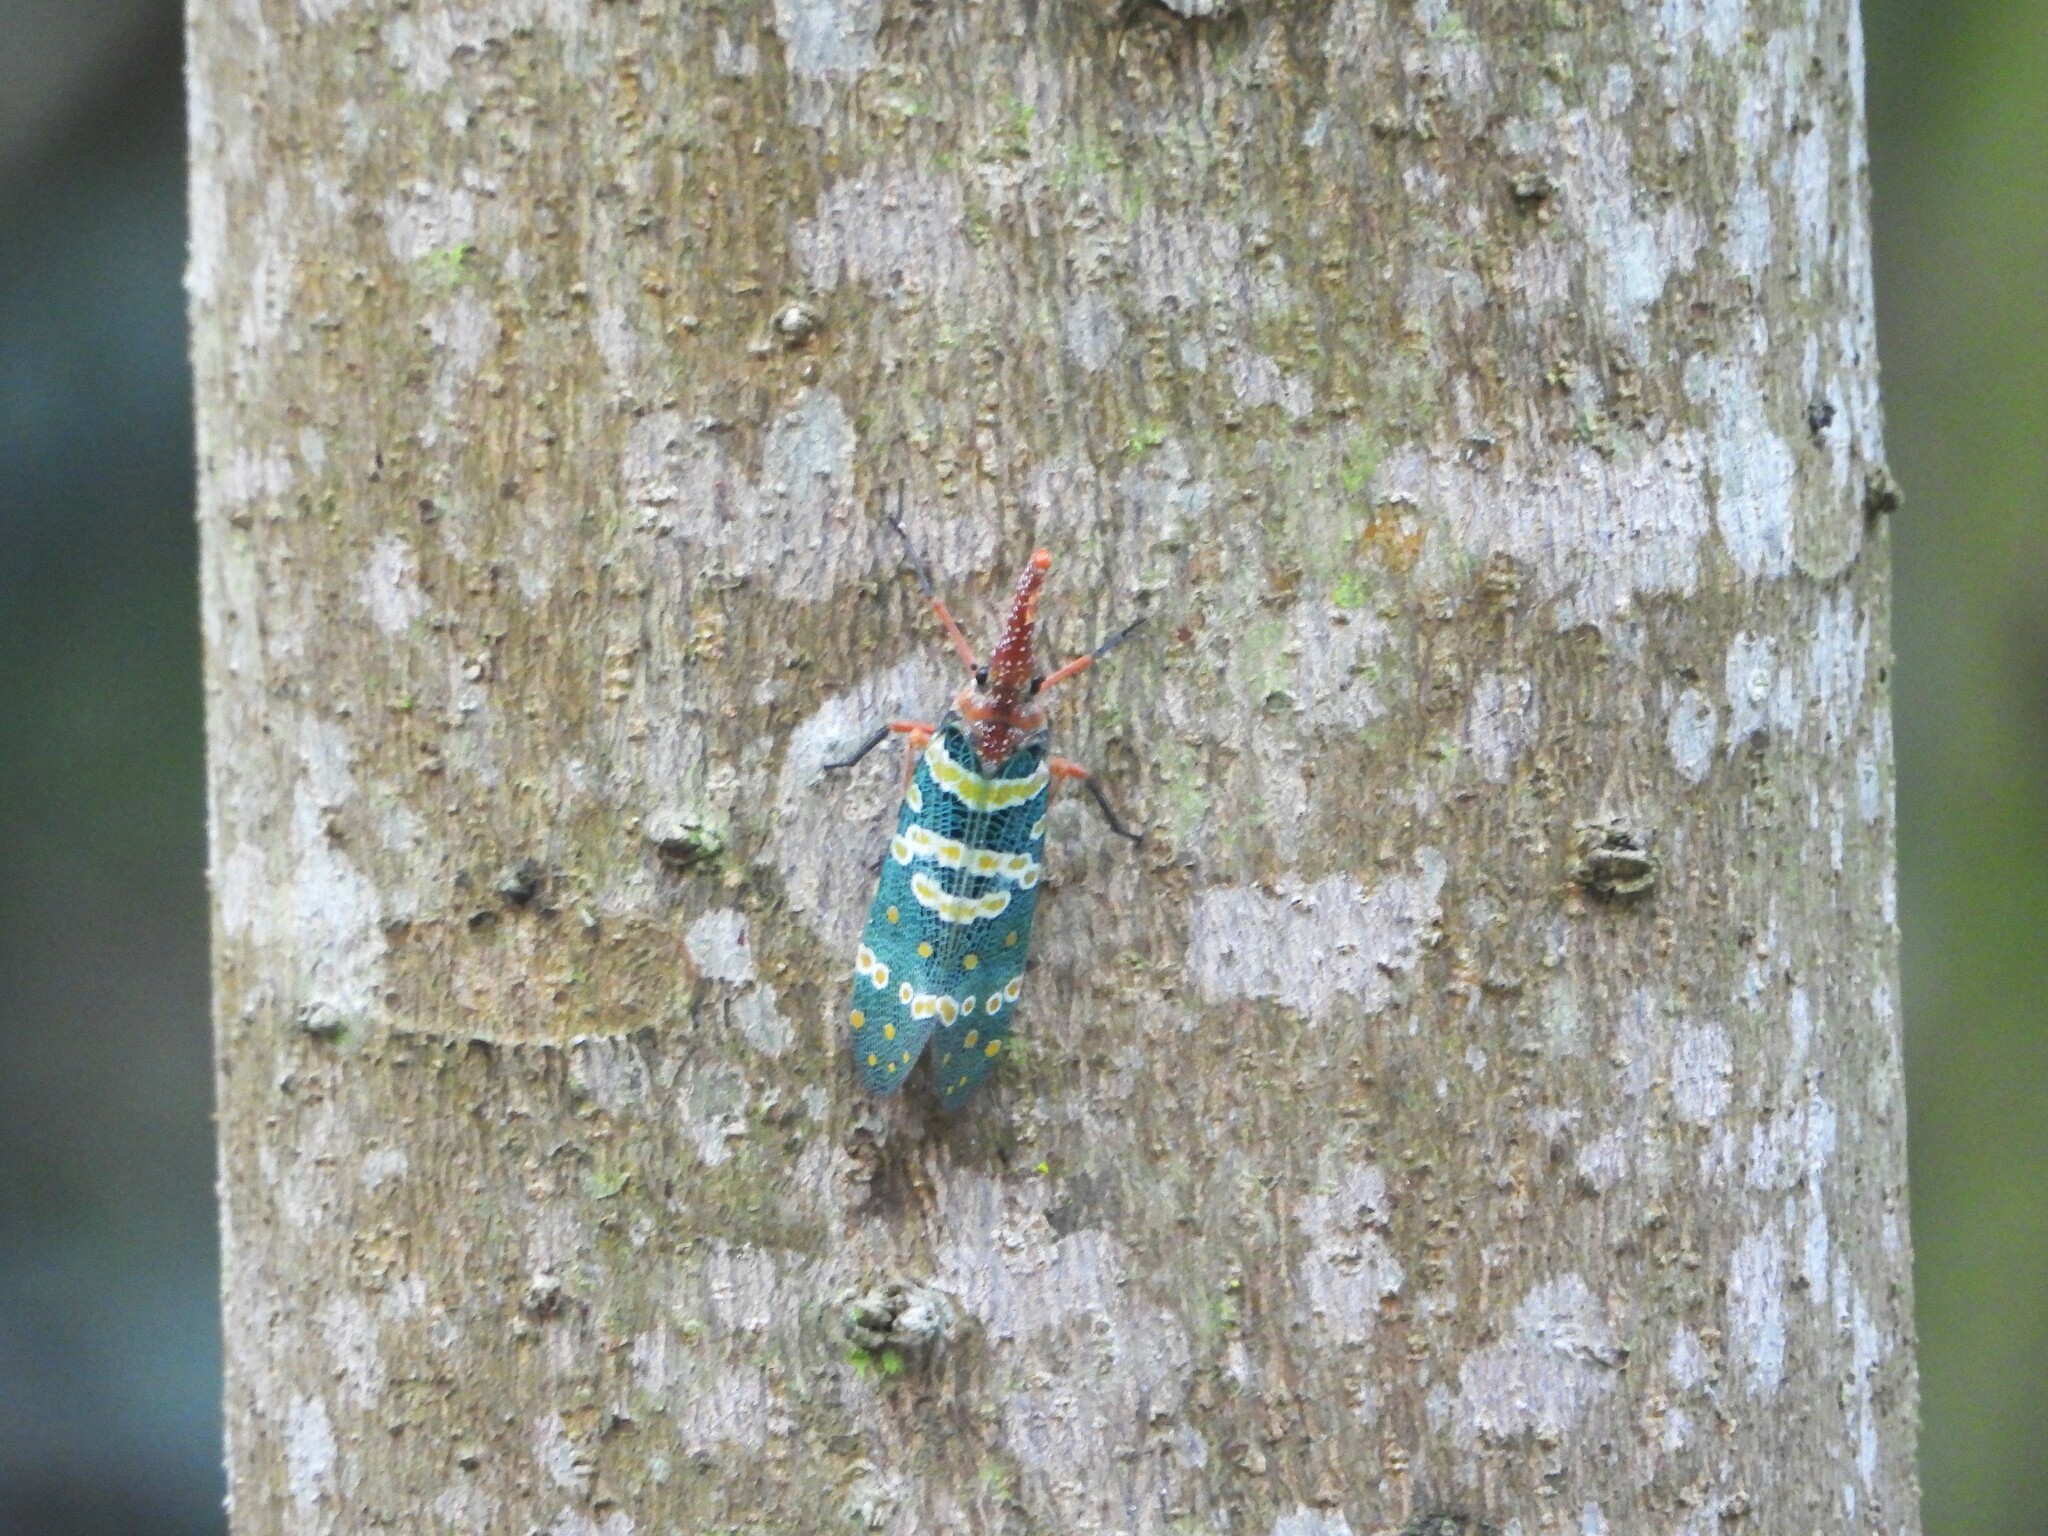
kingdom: Animalia
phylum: Arthropoda
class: Insecta
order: Hemiptera
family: Fulgoridae
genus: Pyrops
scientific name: Pyrops candelaria
